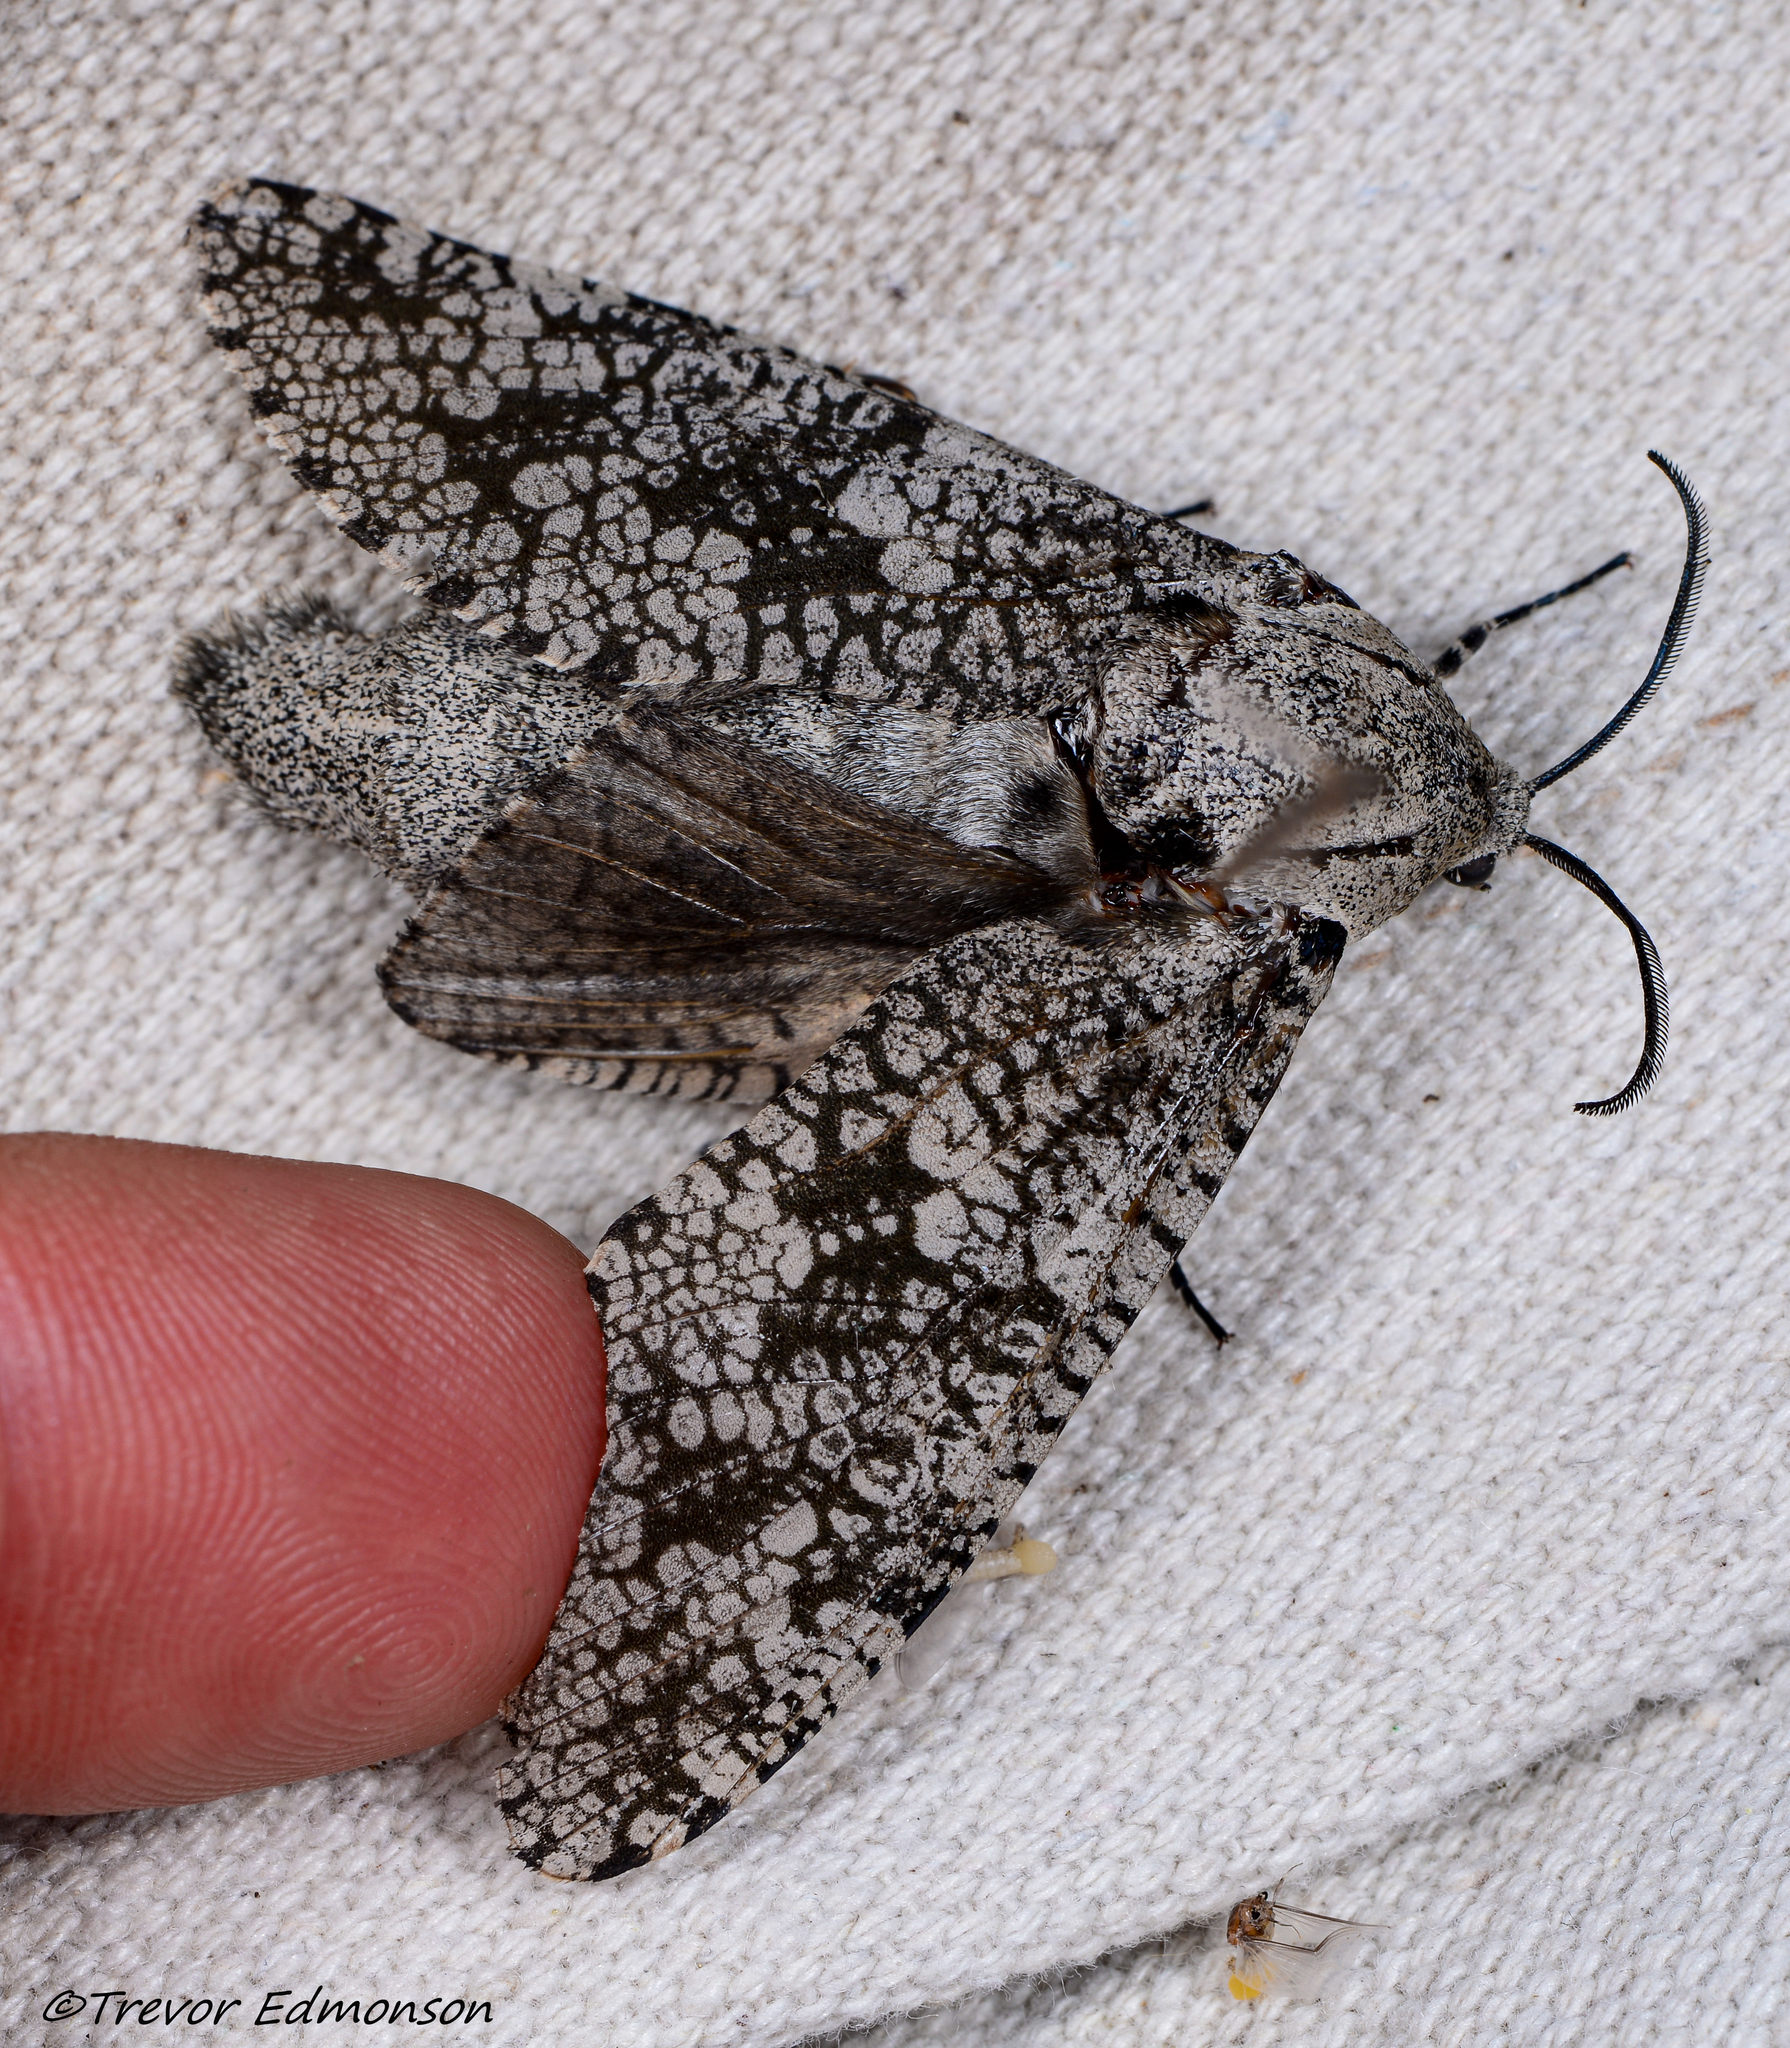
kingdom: Animalia
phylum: Arthropoda
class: Insecta
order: Lepidoptera
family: Cossidae
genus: Prionoxystus
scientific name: Prionoxystus robiniae
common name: Carpenterworm
